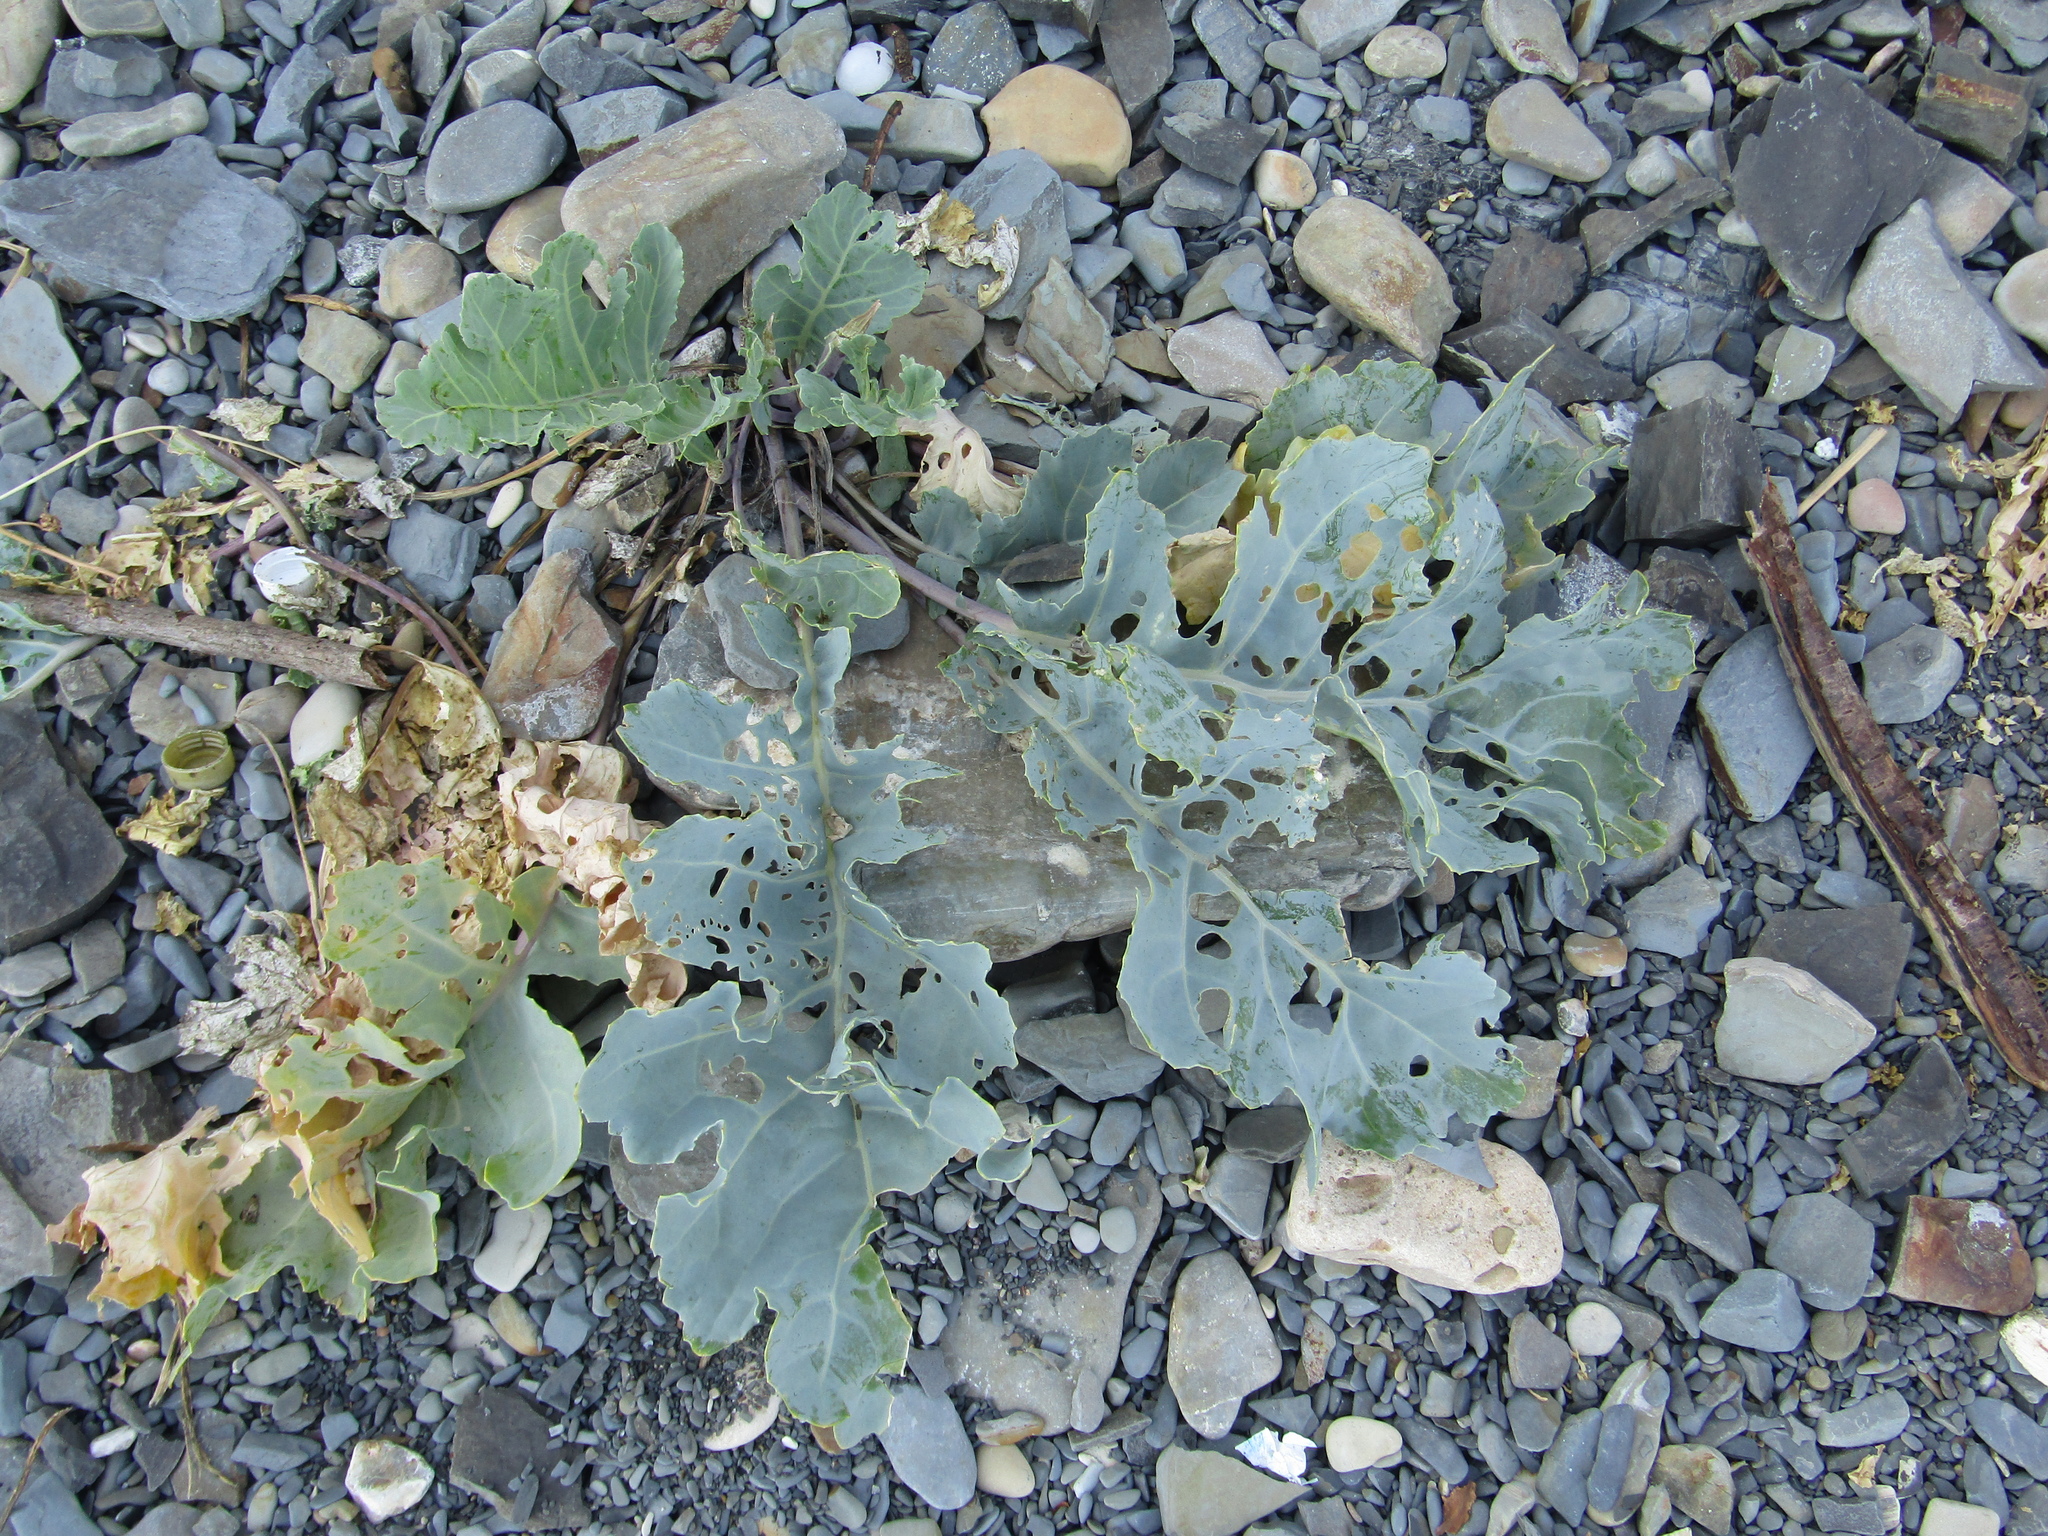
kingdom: Plantae
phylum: Tracheophyta
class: Magnoliopsida
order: Brassicales
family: Brassicaceae
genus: Crambe
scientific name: Crambe maritima
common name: Sea-kale
